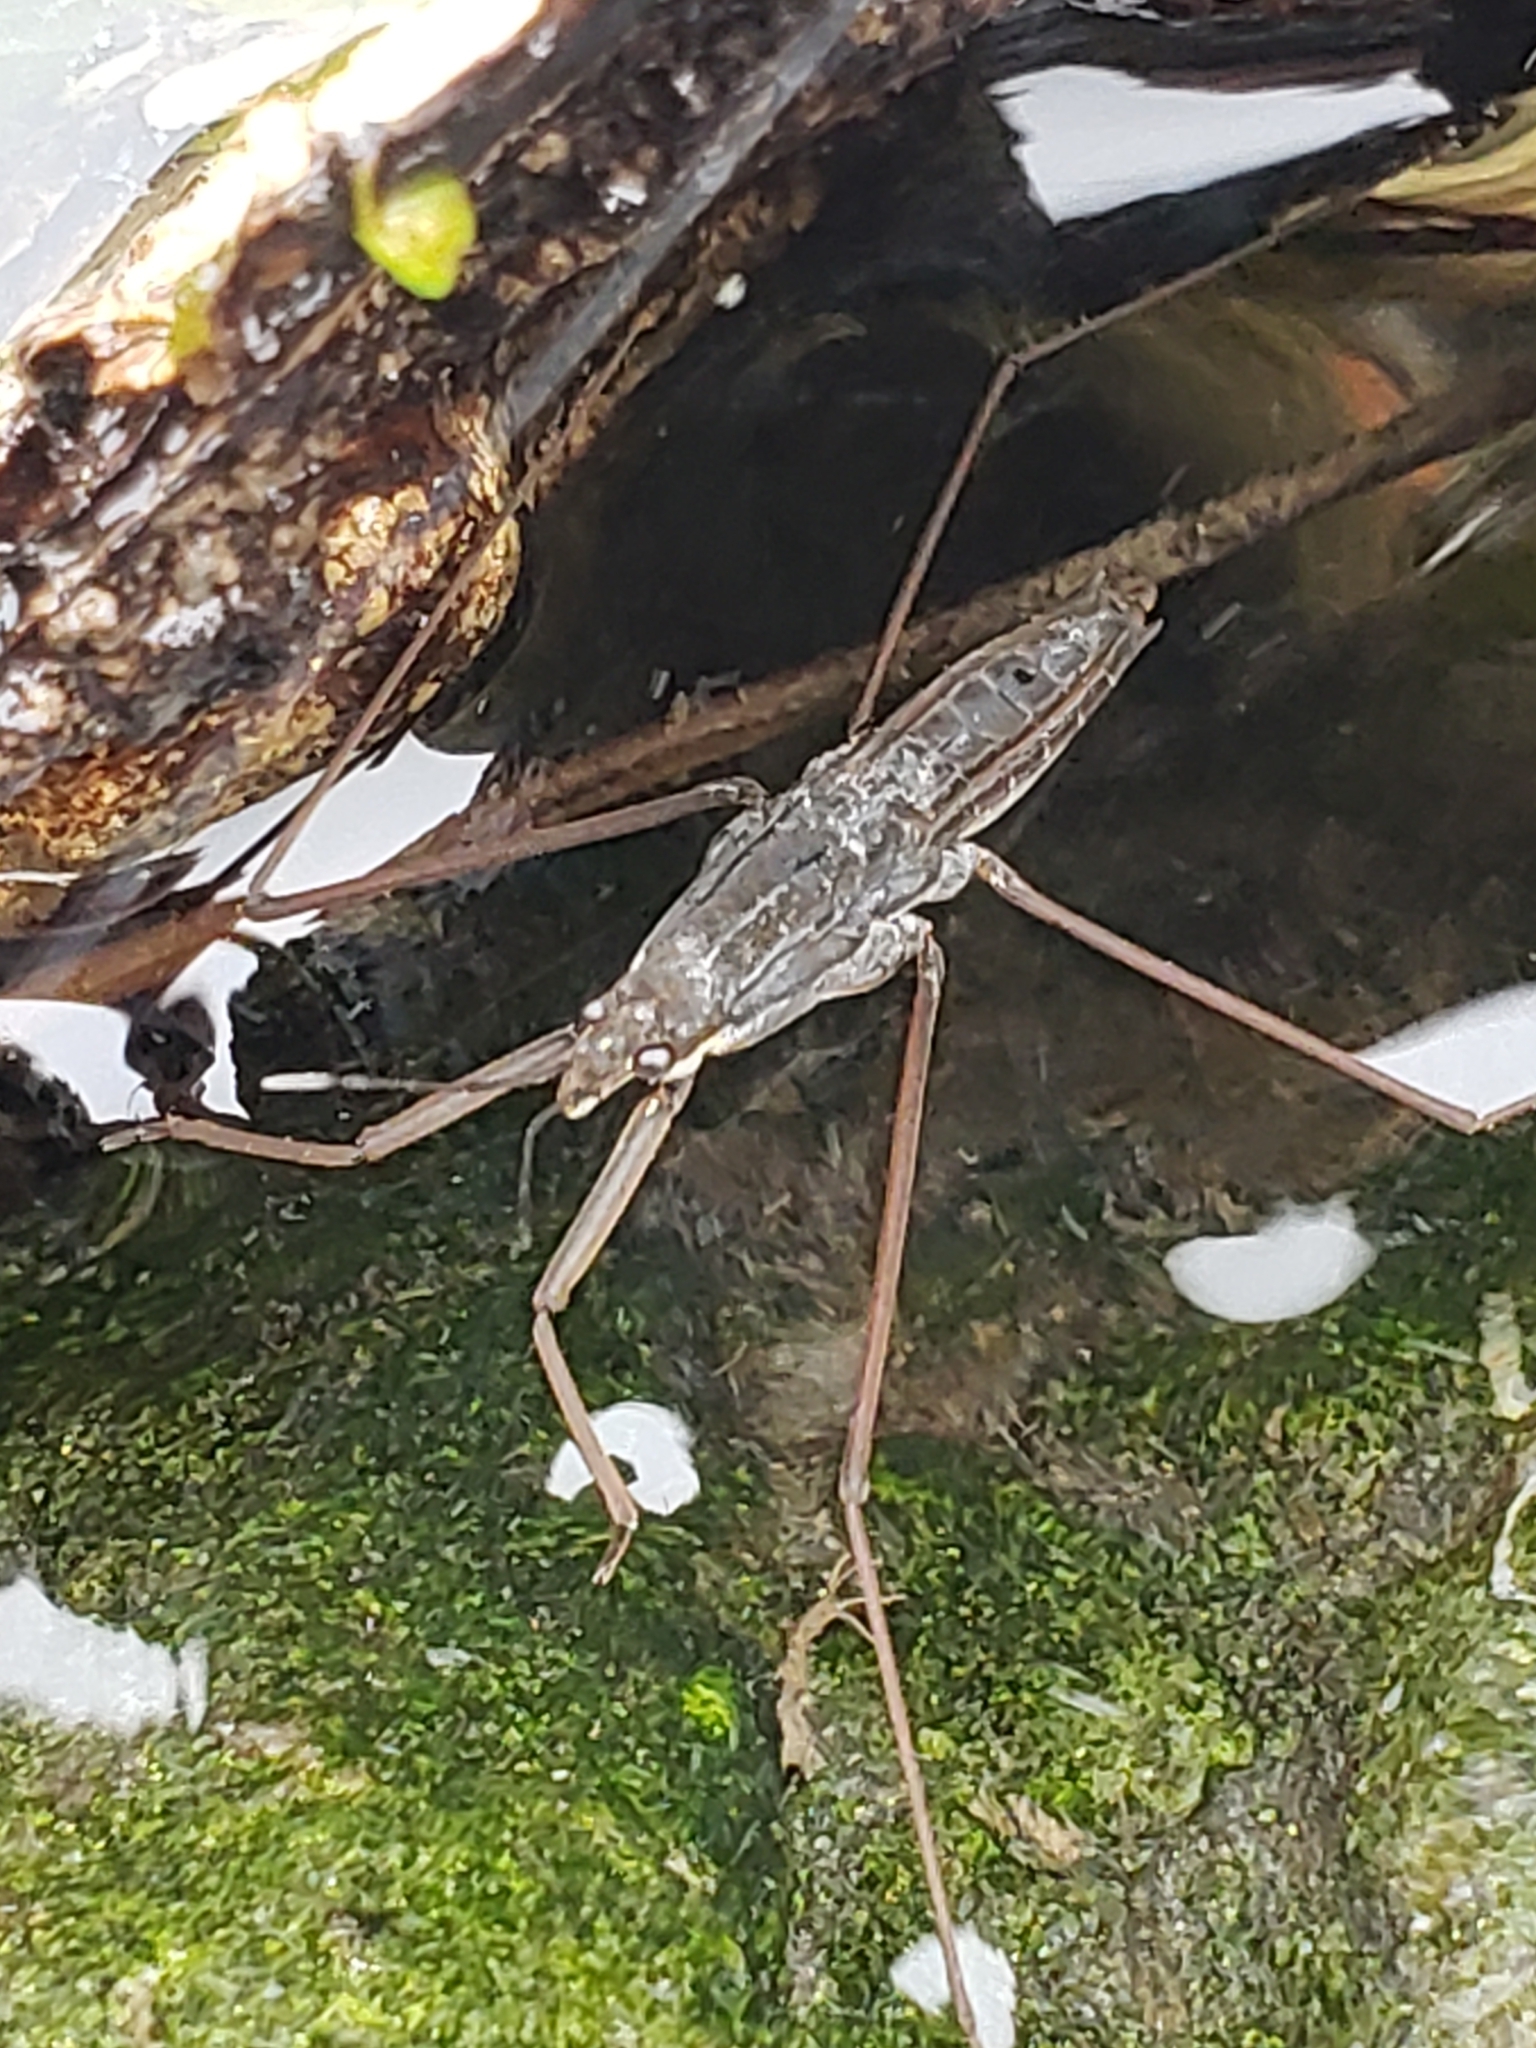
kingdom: Animalia
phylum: Arthropoda
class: Insecta
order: Hemiptera
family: Gerridae
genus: Aquarius
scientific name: Aquarius remigis
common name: Common water strider
